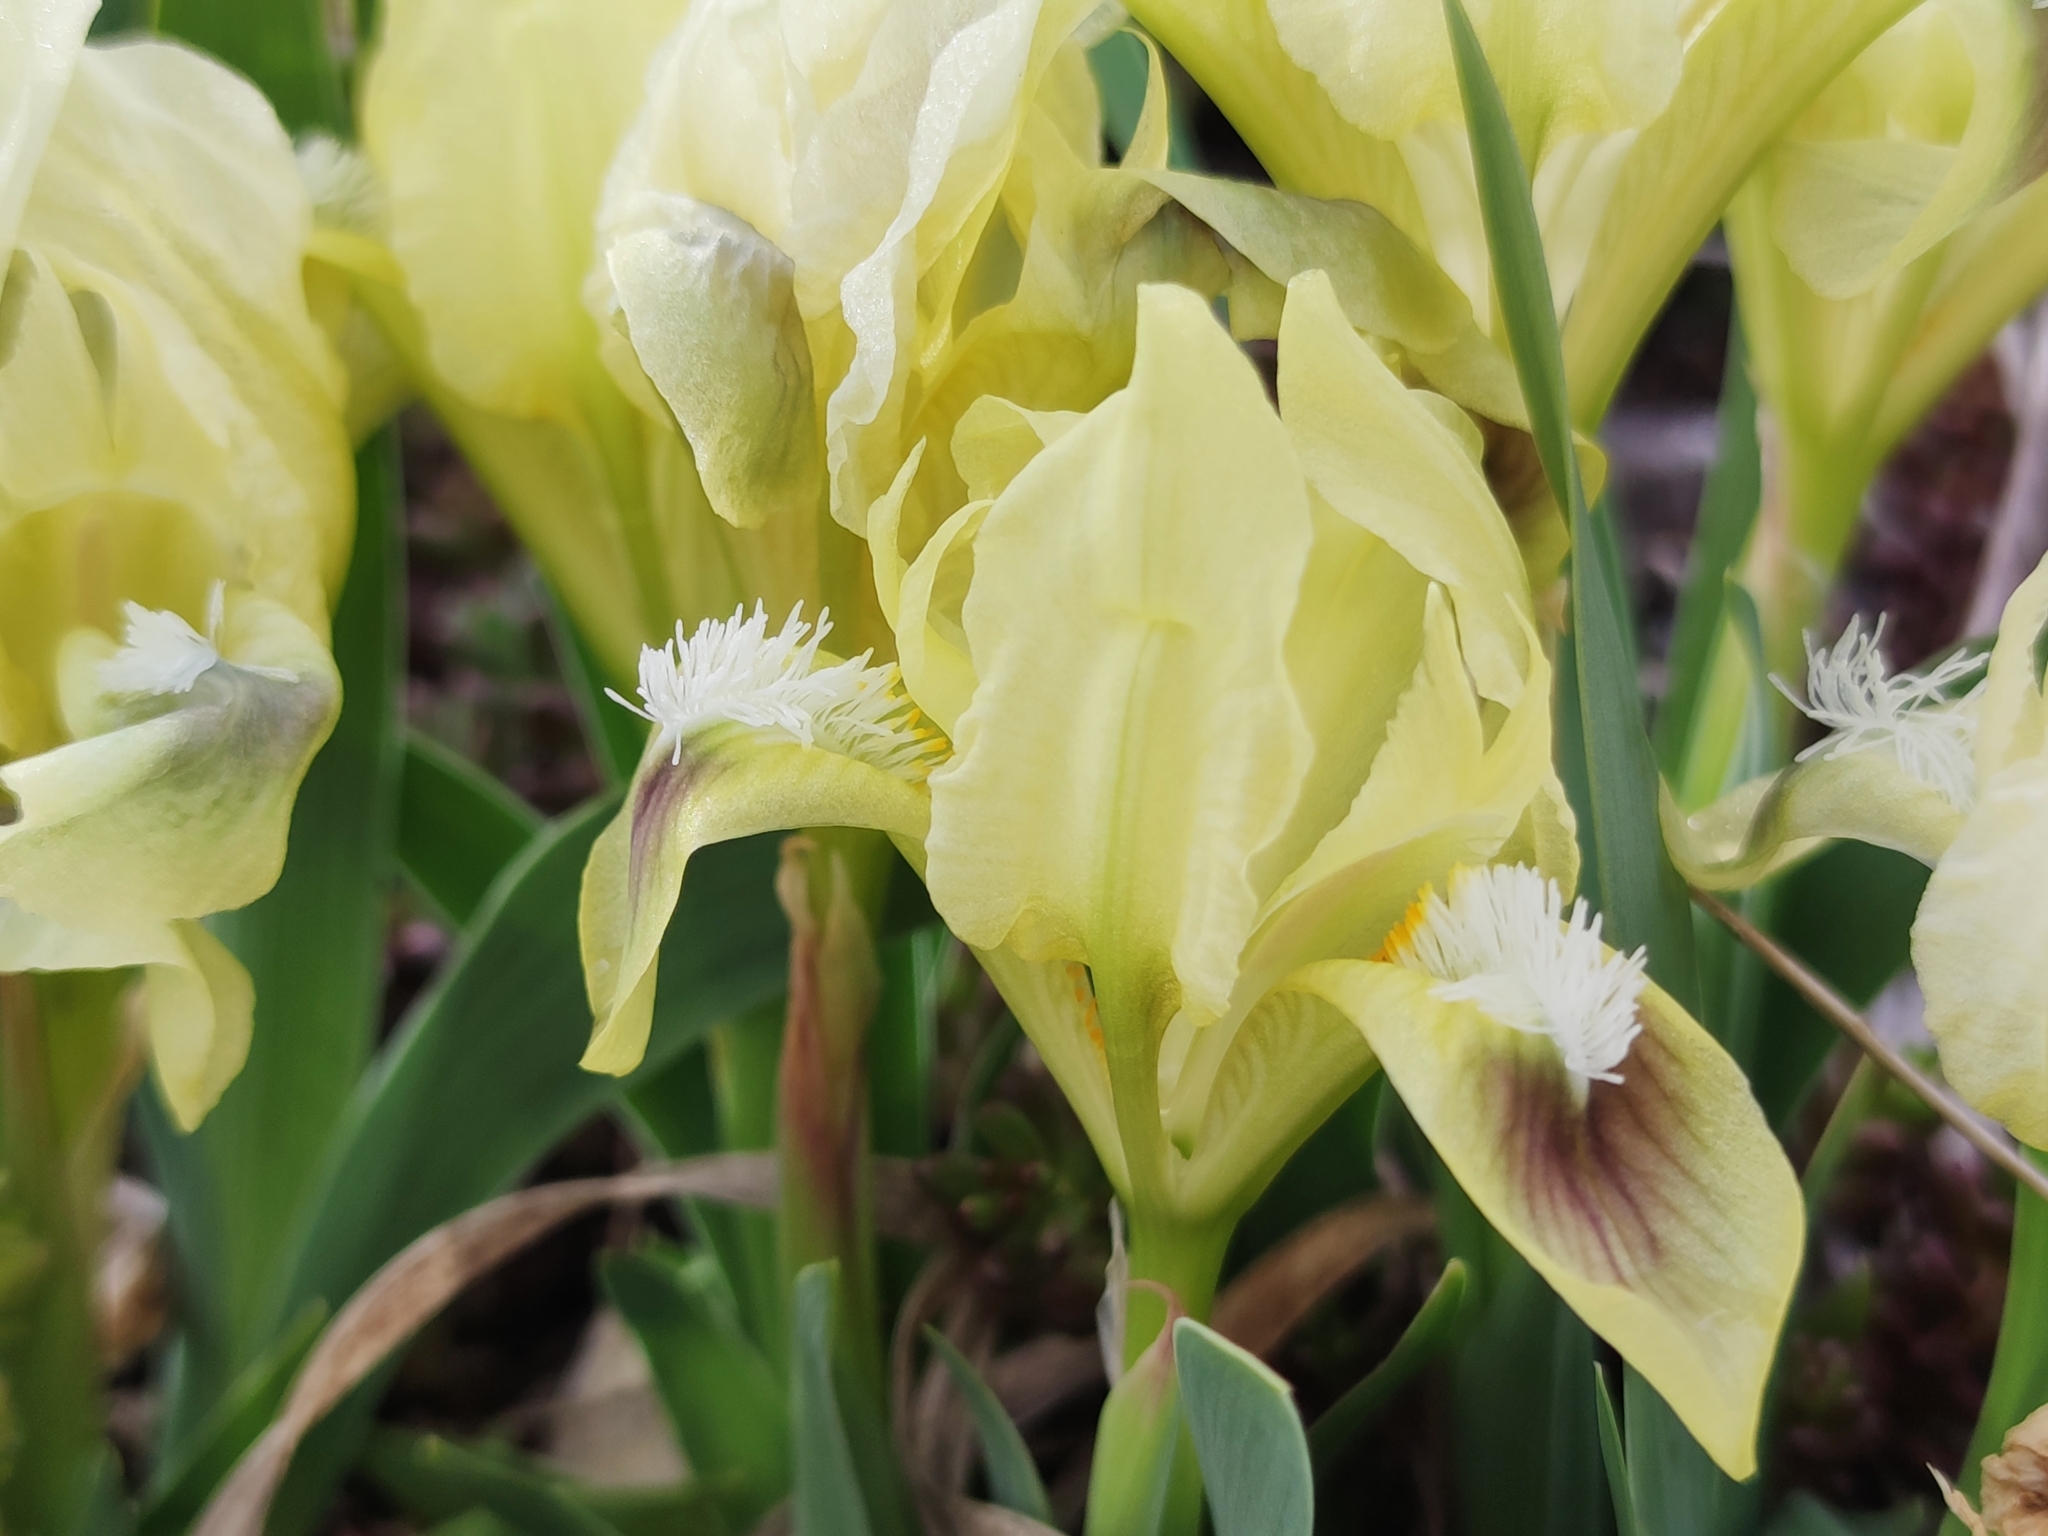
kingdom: Plantae
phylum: Tracheophyta
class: Liliopsida
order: Asparagales
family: Iridaceae
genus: Iris
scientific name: Iris pumila
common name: Dwarf iris
